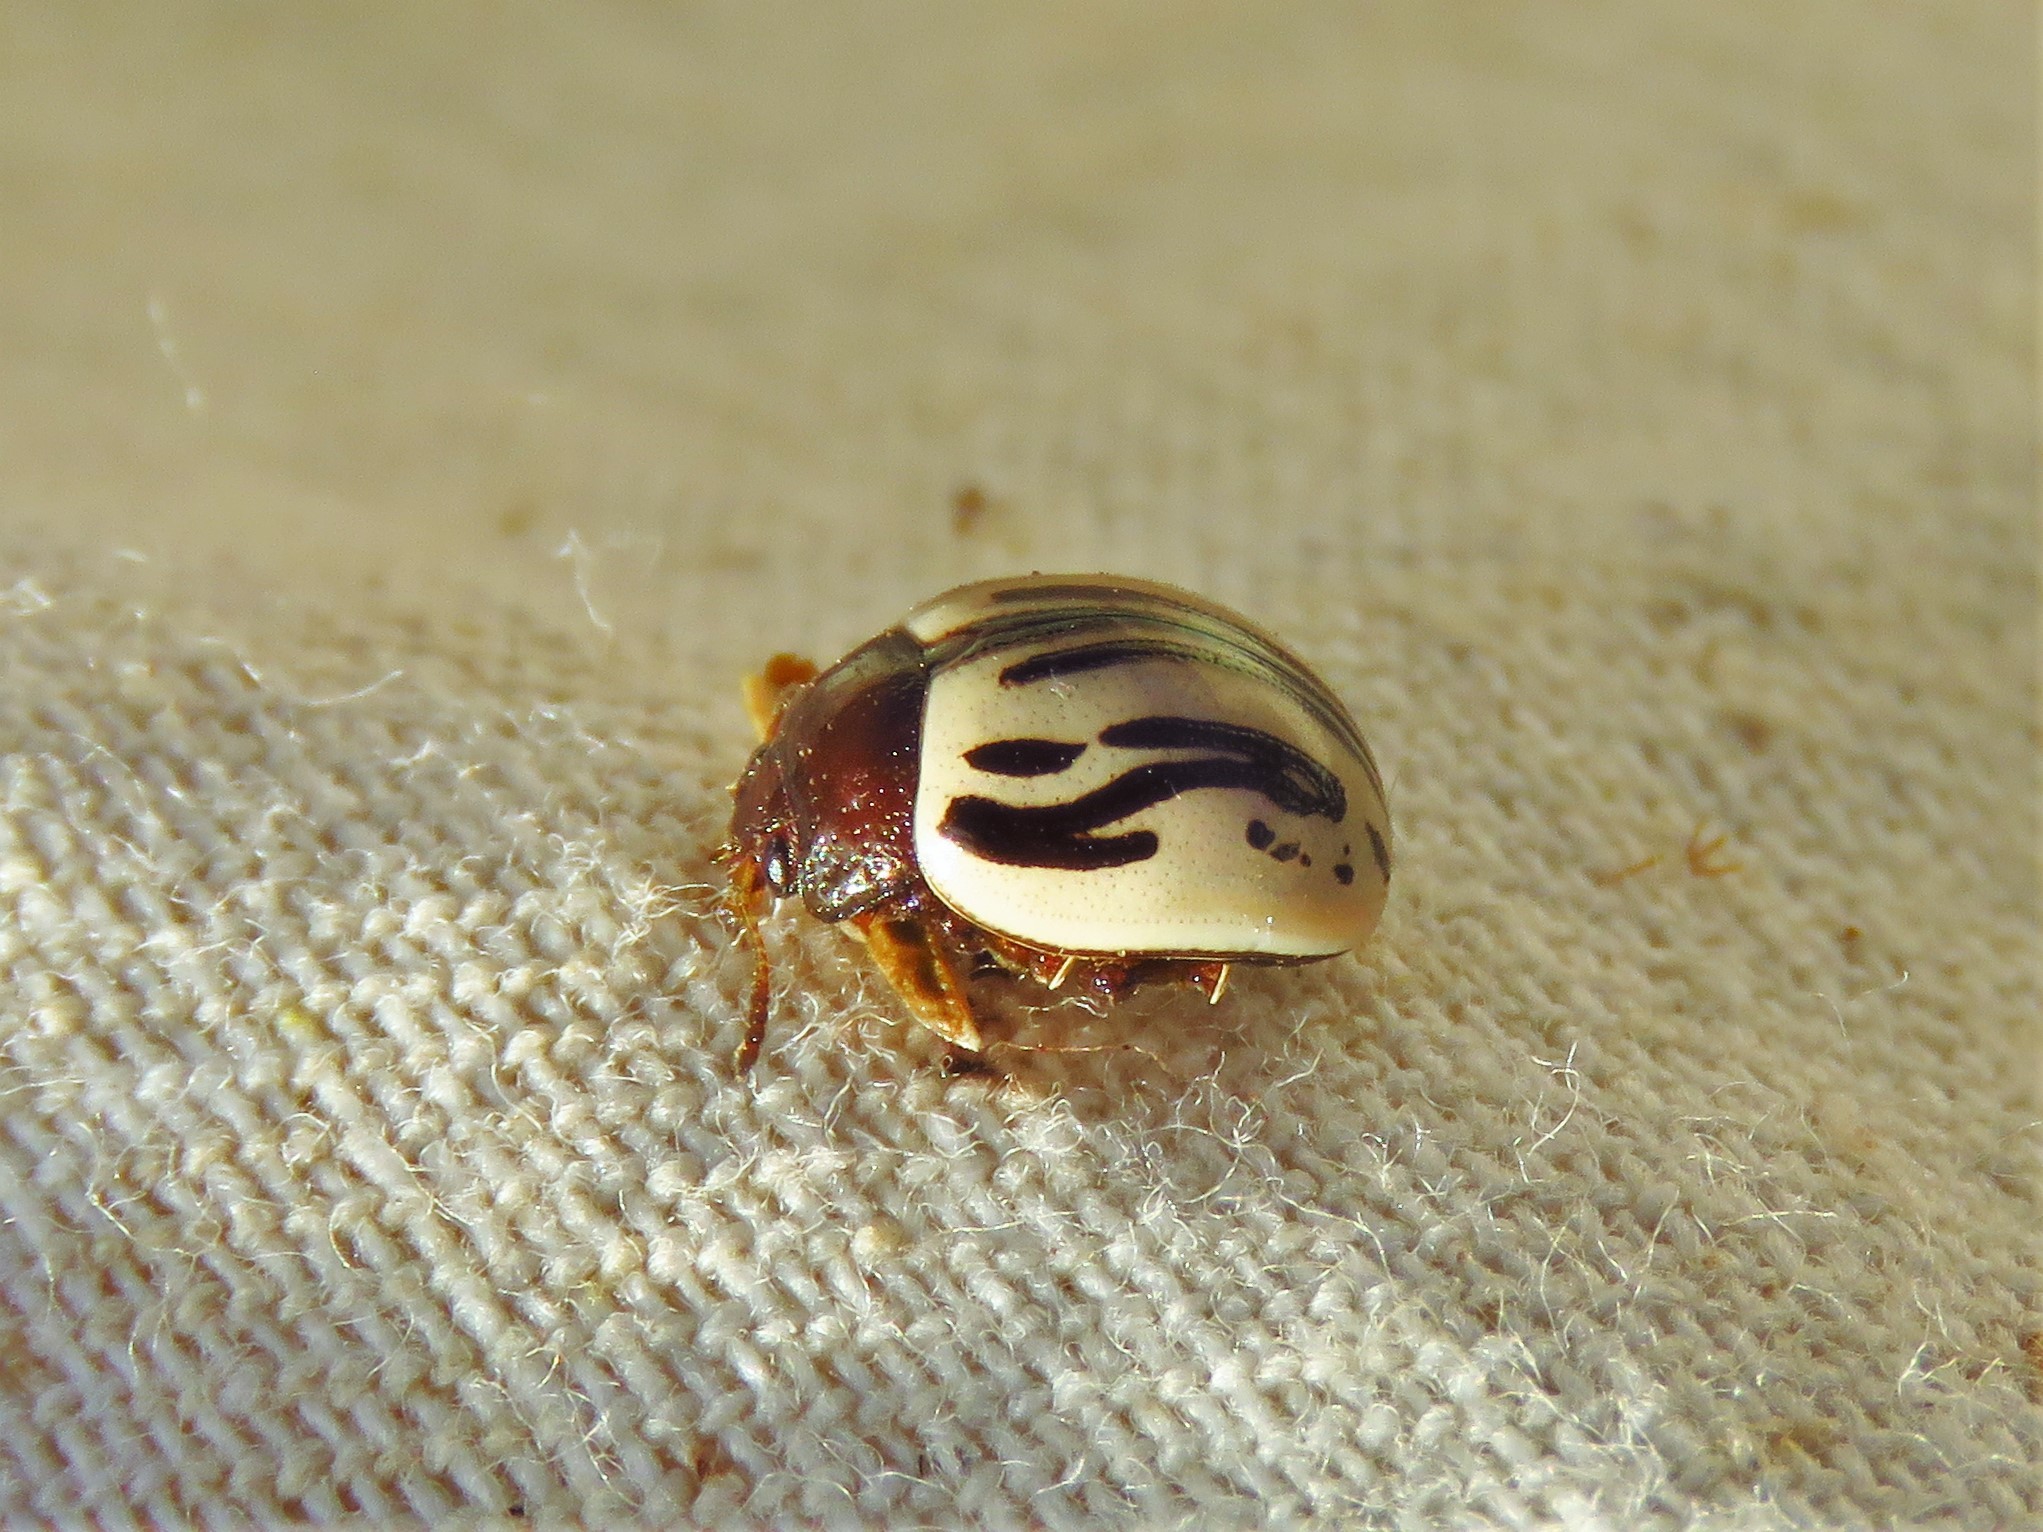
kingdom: Animalia
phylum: Arthropoda
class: Insecta
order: Coleoptera
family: Chrysomelidae
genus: Calligrapha
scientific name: Calligrapha
